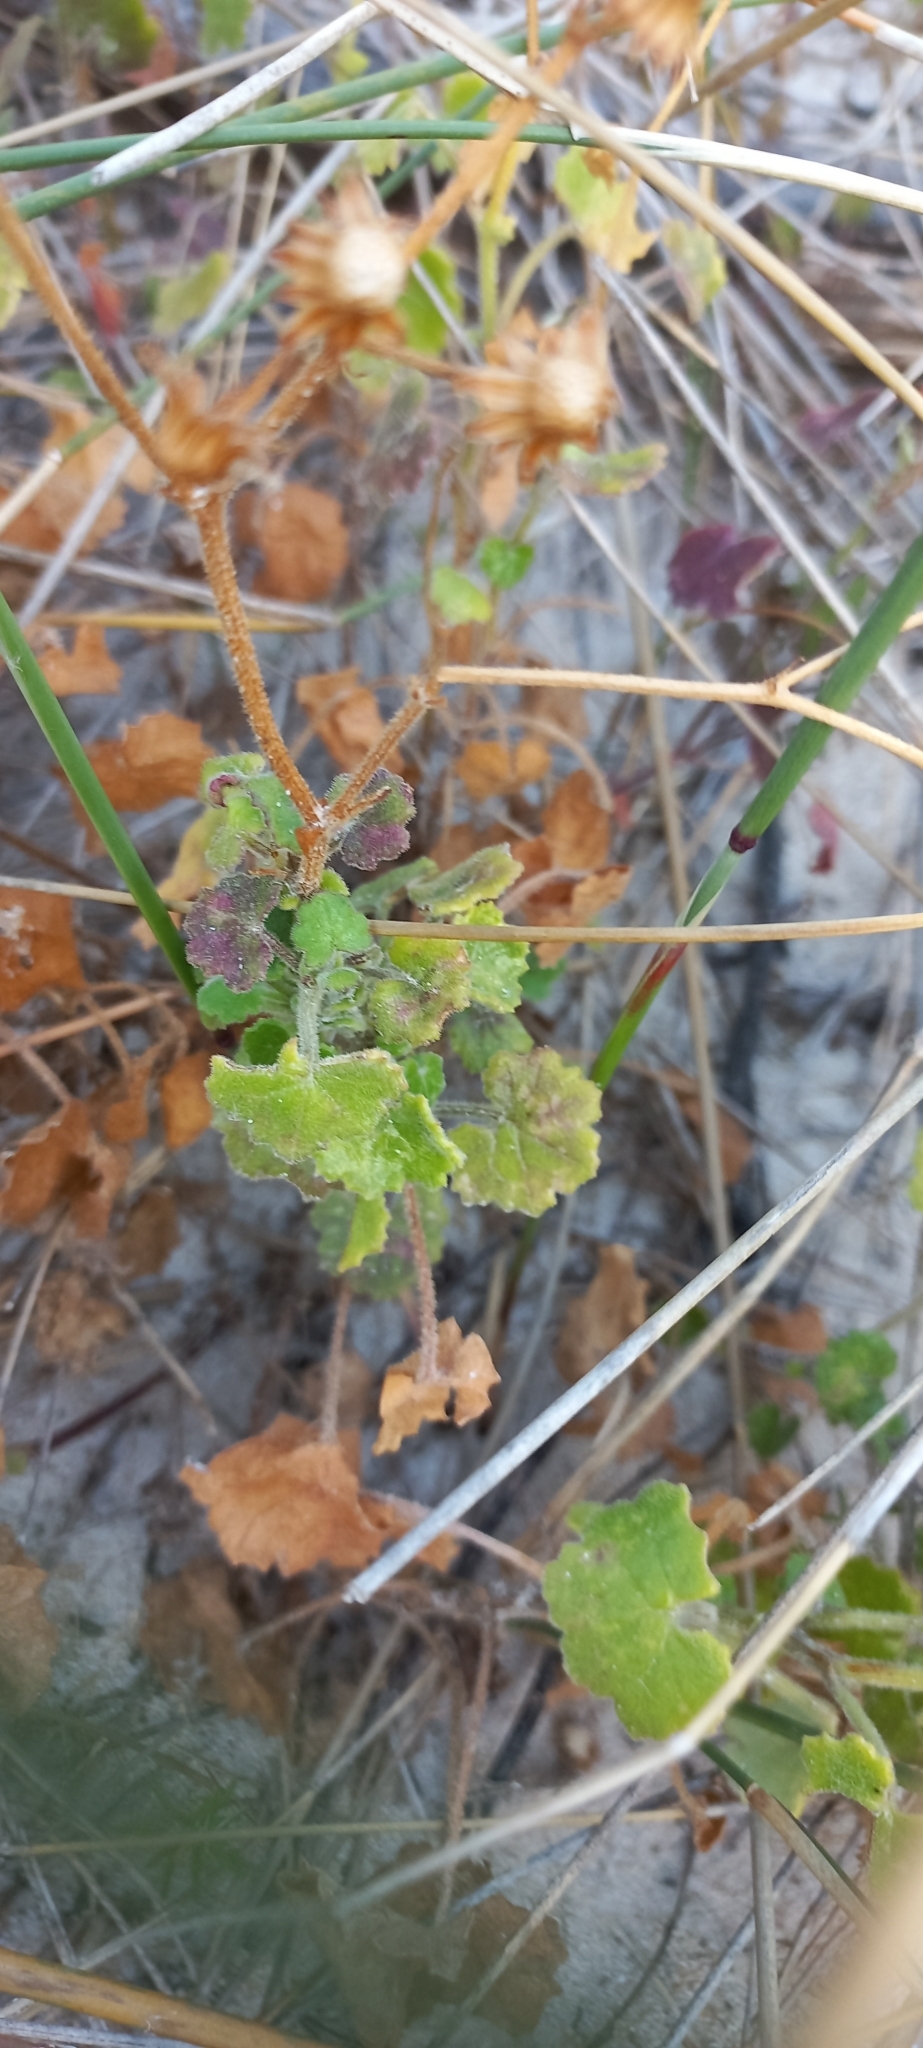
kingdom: Plantae
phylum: Tracheophyta
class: Magnoliopsida
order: Asterales
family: Asteraceae
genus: Cineraria
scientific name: Cineraria geifolia
